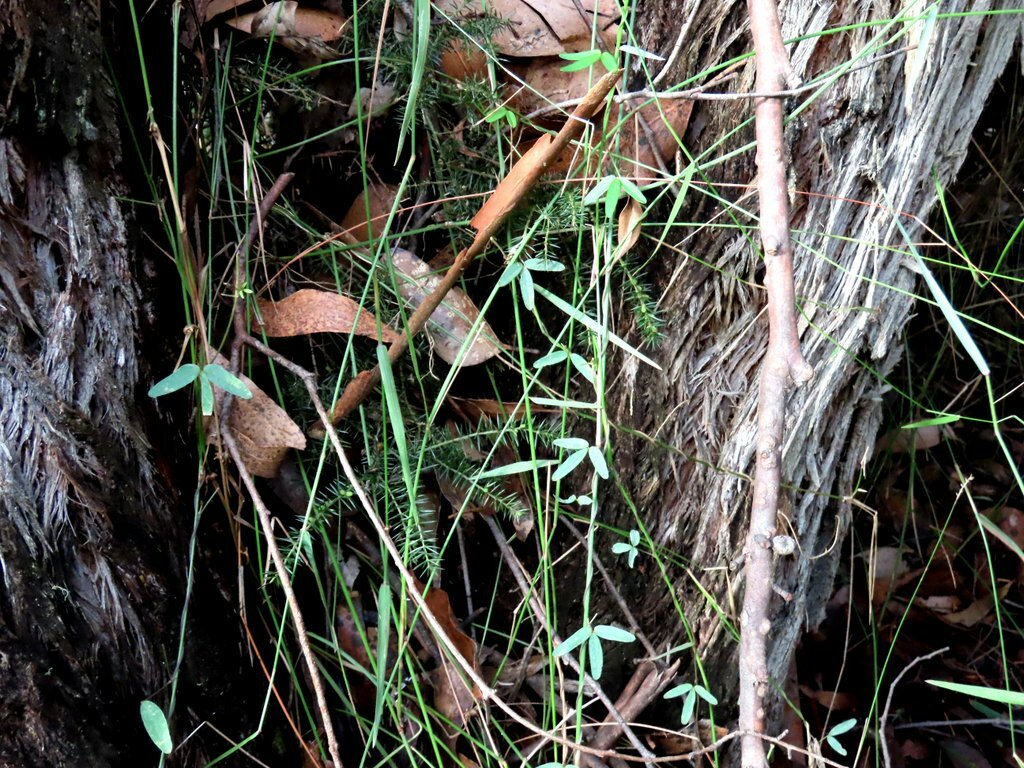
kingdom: Plantae
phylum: Tracheophyta
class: Liliopsida
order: Poales
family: Poaceae
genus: Tetrarrhena
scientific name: Tetrarrhena juncea
